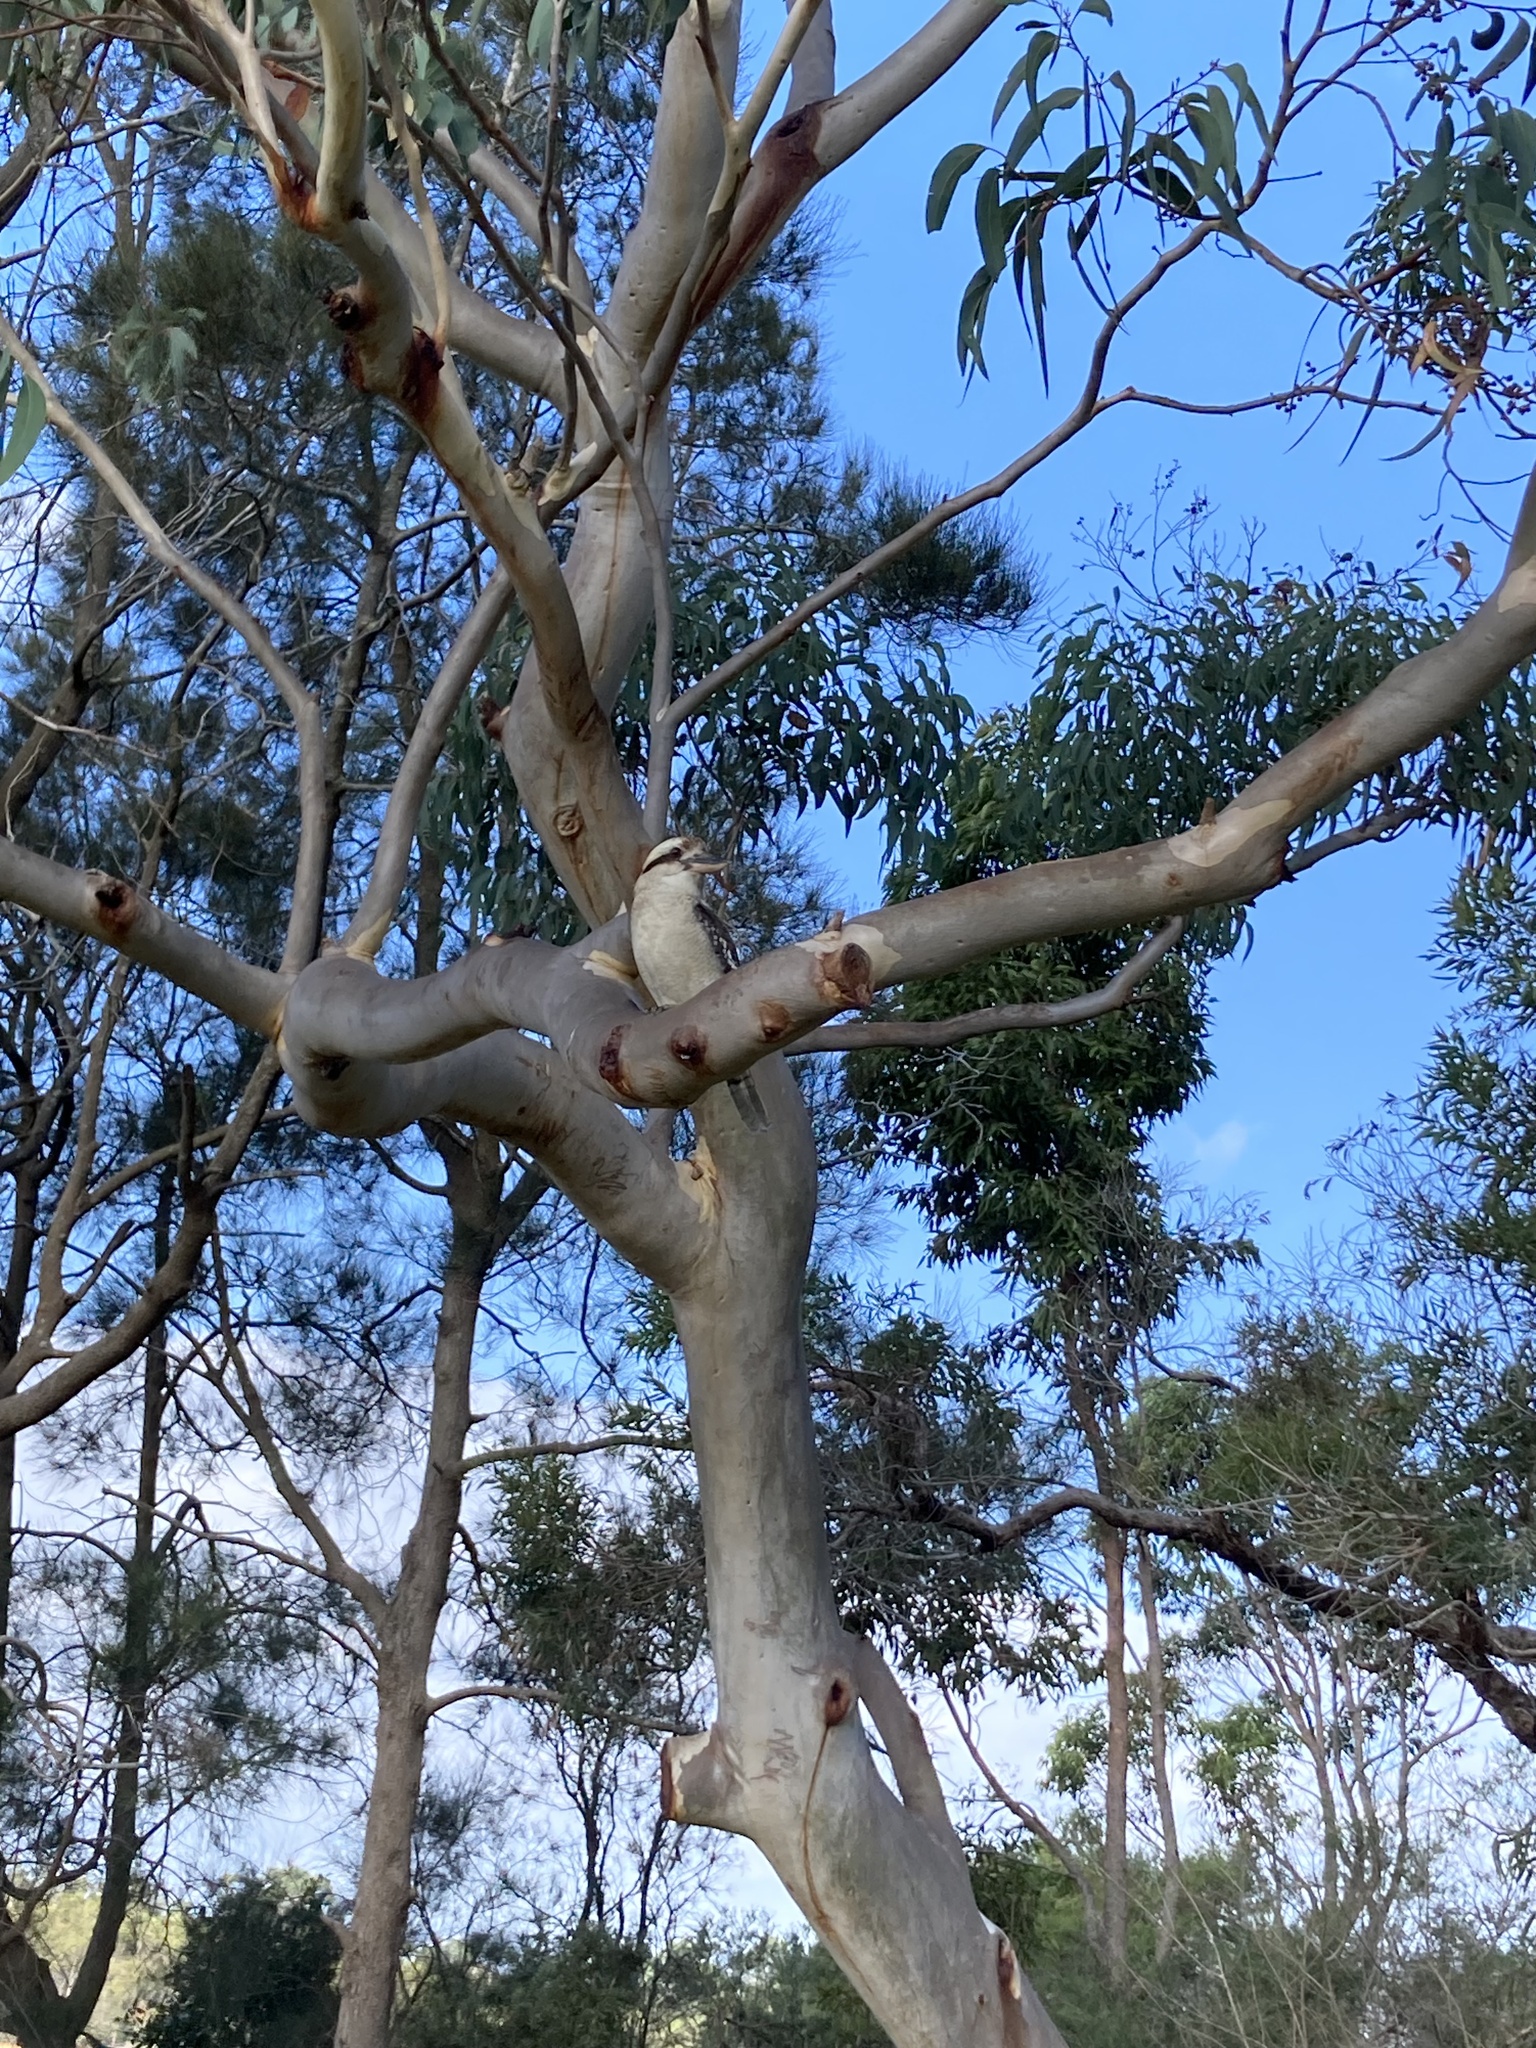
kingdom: Animalia
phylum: Chordata
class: Aves
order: Coraciiformes
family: Alcedinidae
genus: Dacelo
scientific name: Dacelo novaeguineae
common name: Laughing kookaburra
